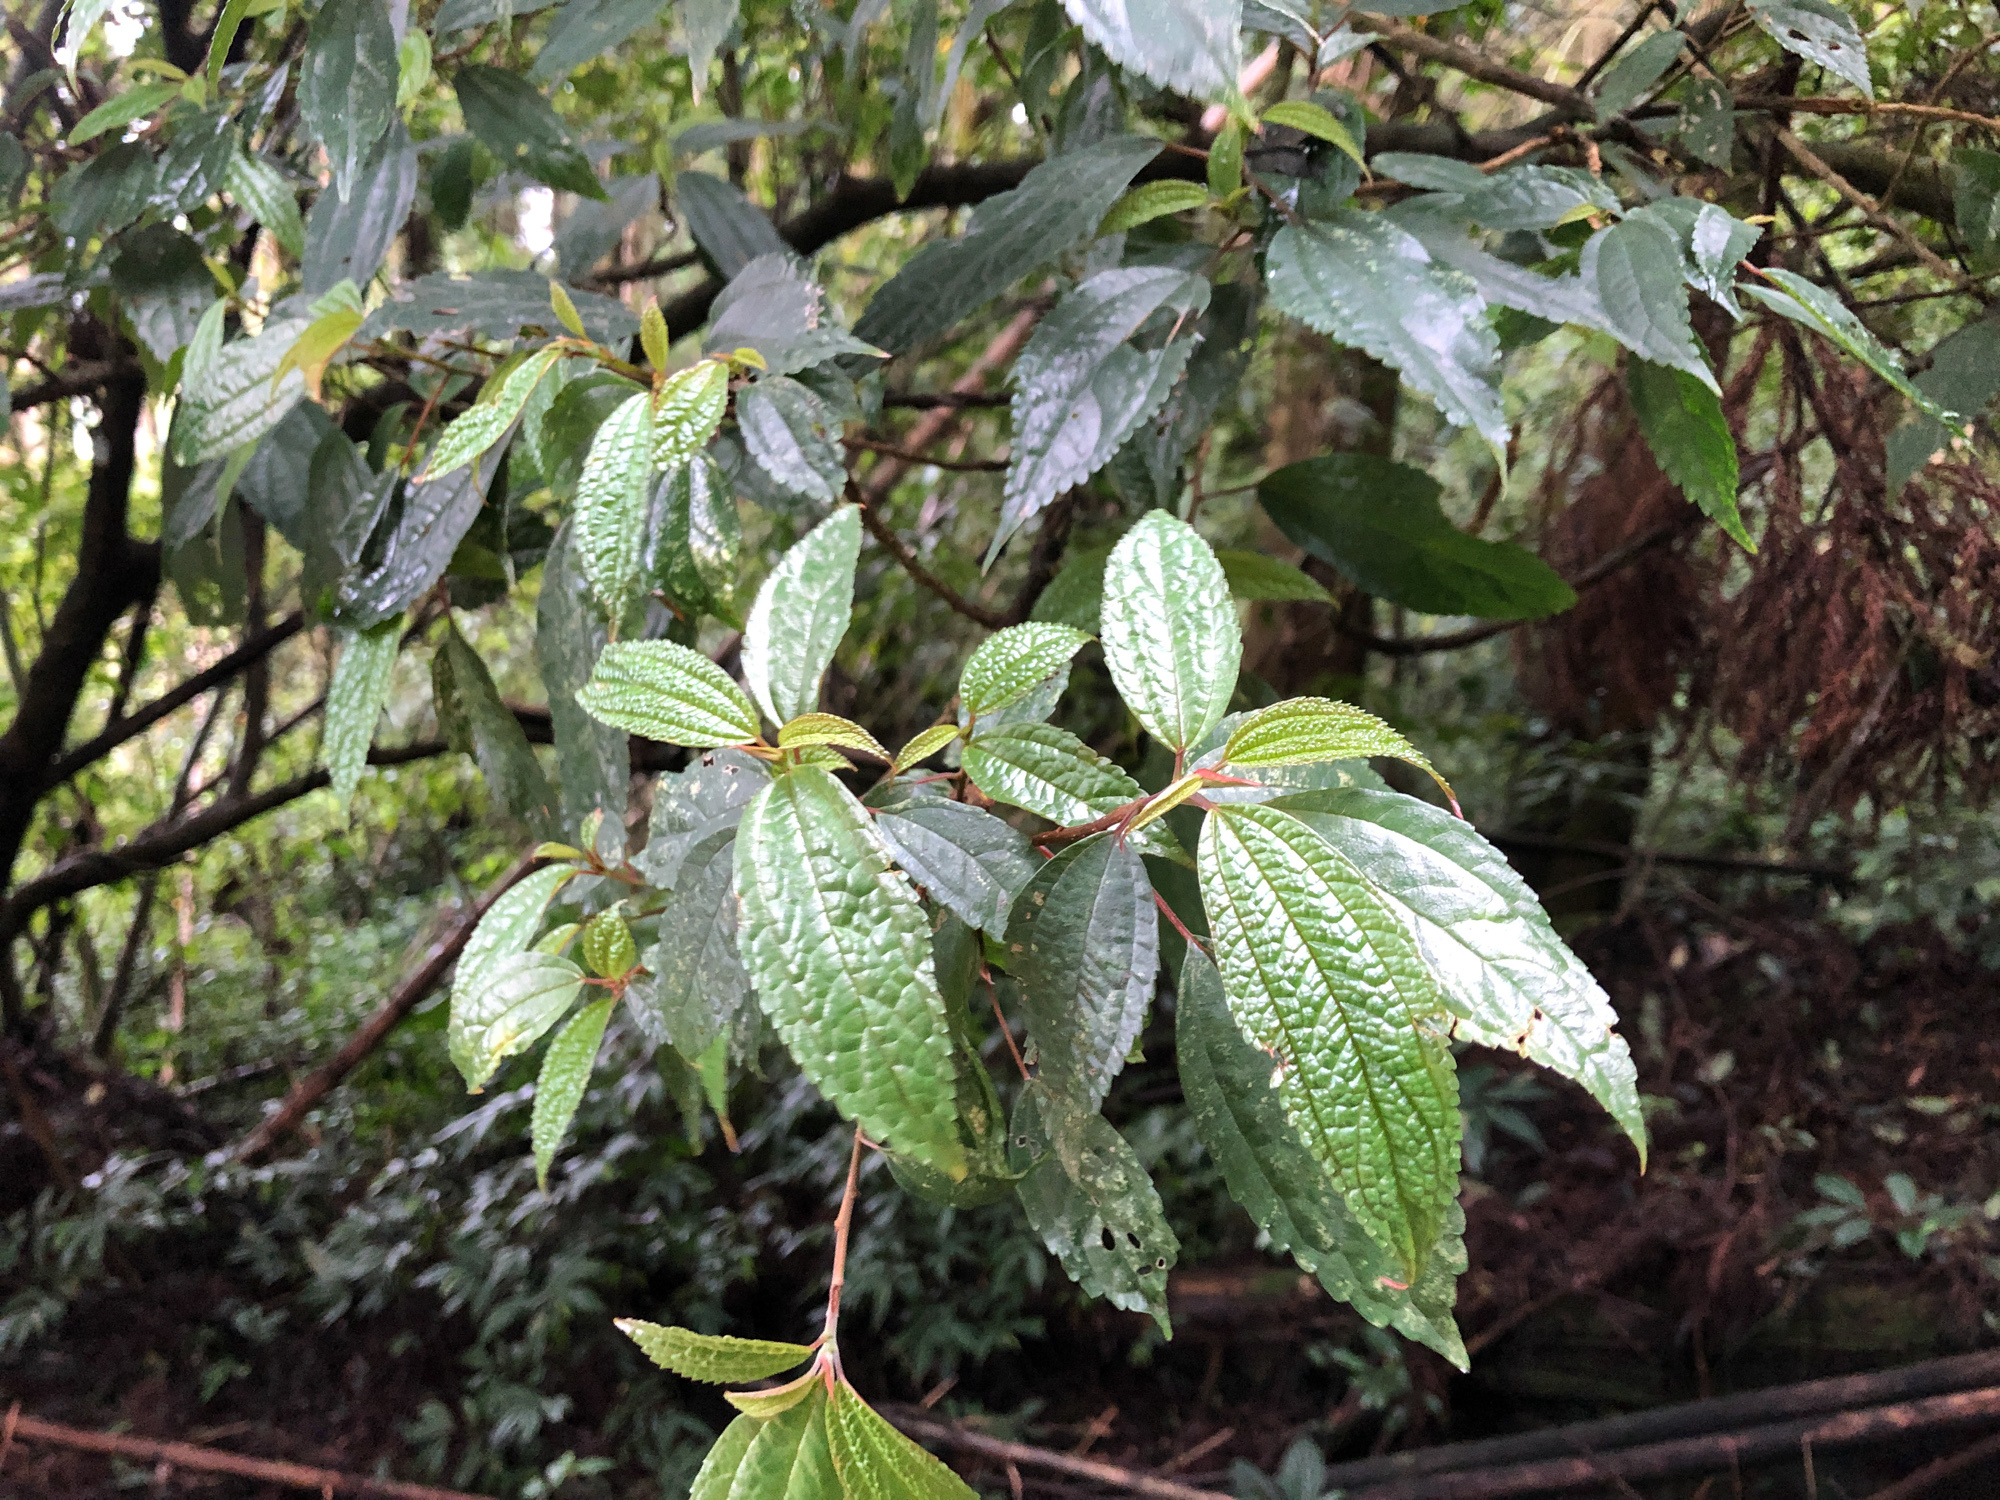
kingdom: Plantae
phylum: Tracheophyta
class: Magnoliopsida
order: Rosales
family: Urticaceae
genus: Oreocnide
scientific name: Oreocnide pedunculata
